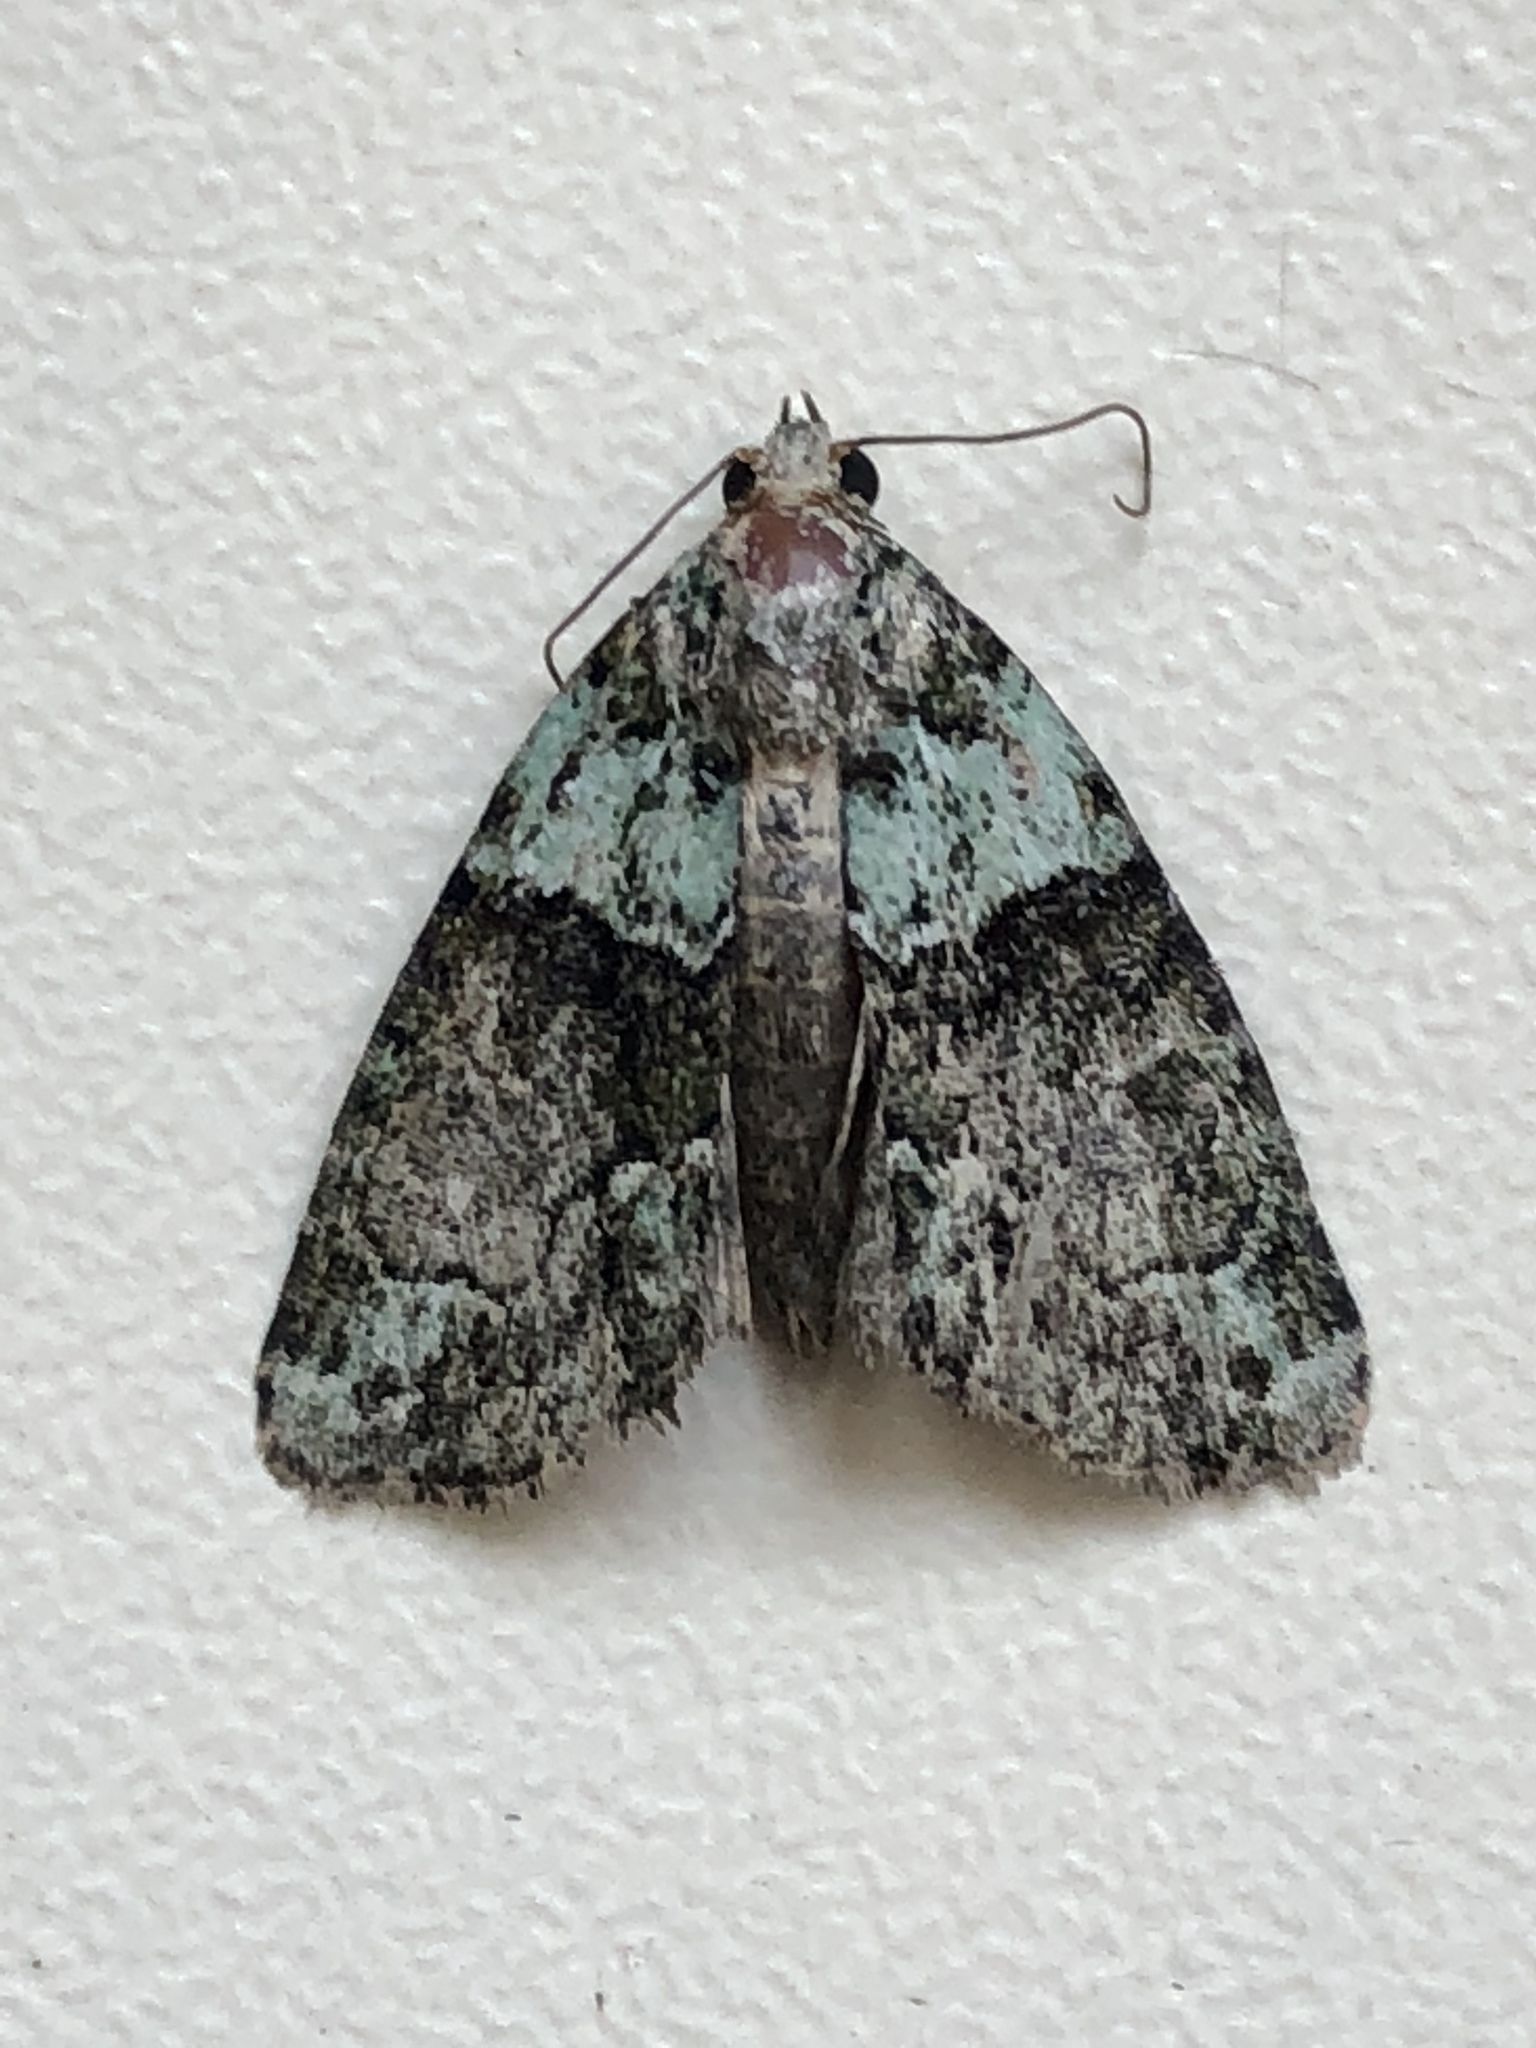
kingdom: Animalia
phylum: Arthropoda
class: Insecta
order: Lepidoptera
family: Noctuidae
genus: Cryphia
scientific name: Cryphia algae
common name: Tree-lichen beauty
